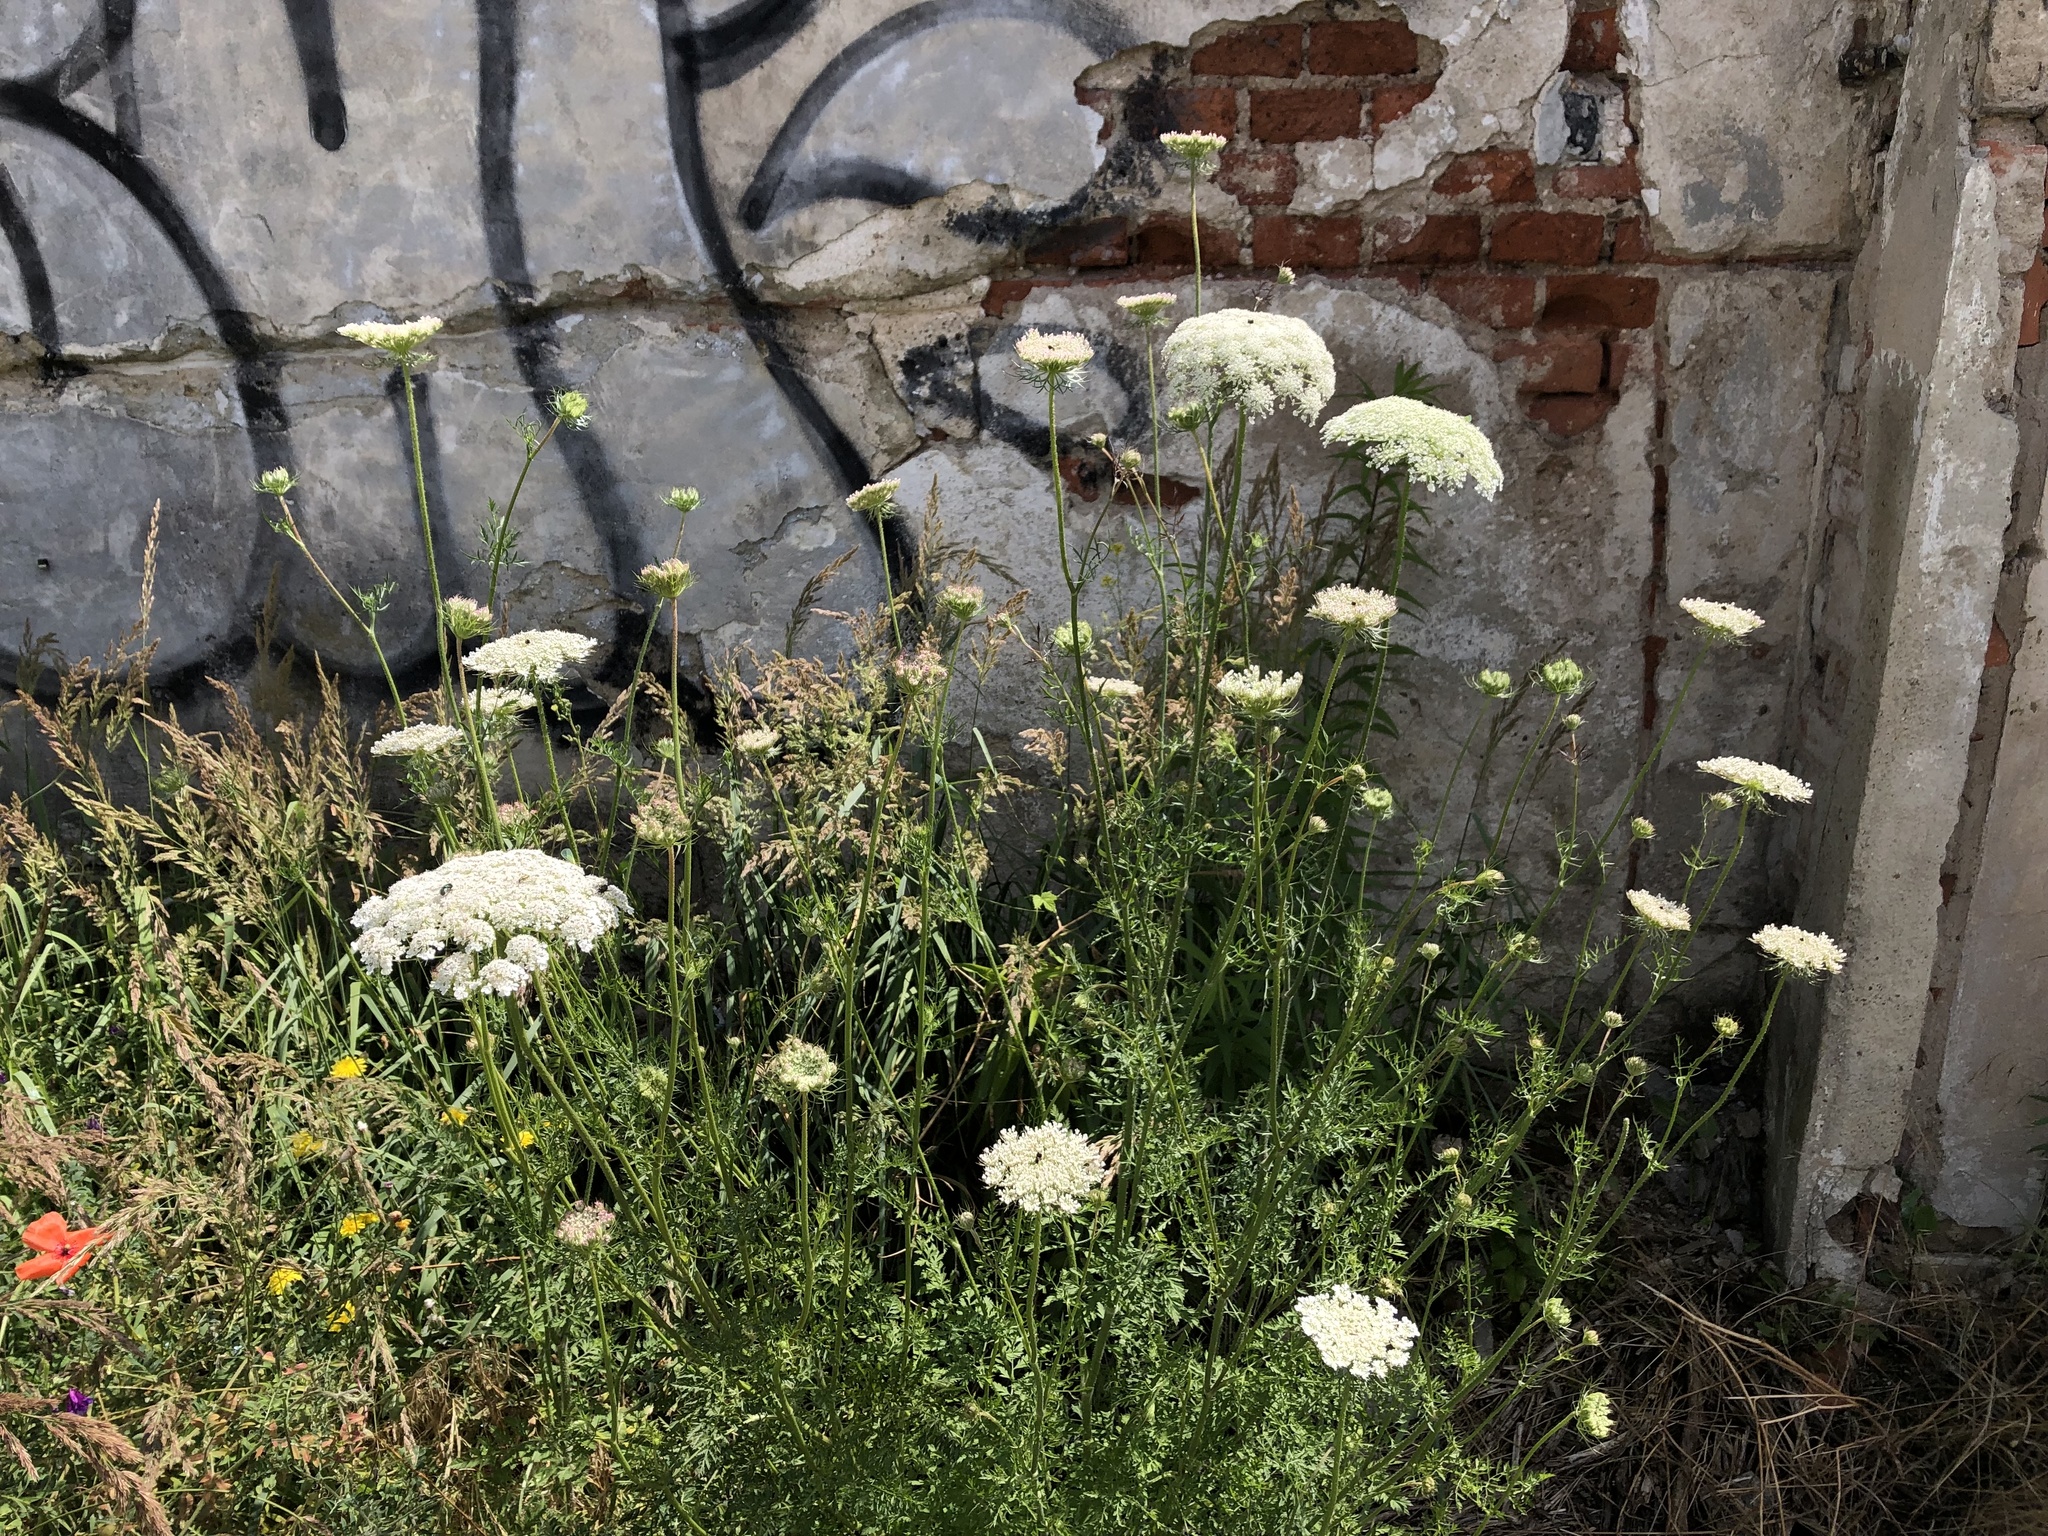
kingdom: Plantae
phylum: Tracheophyta
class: Magnoliopsida
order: Apiales
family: Apiaceae
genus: Daucus
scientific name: Daucus carota
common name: Wild carrot
